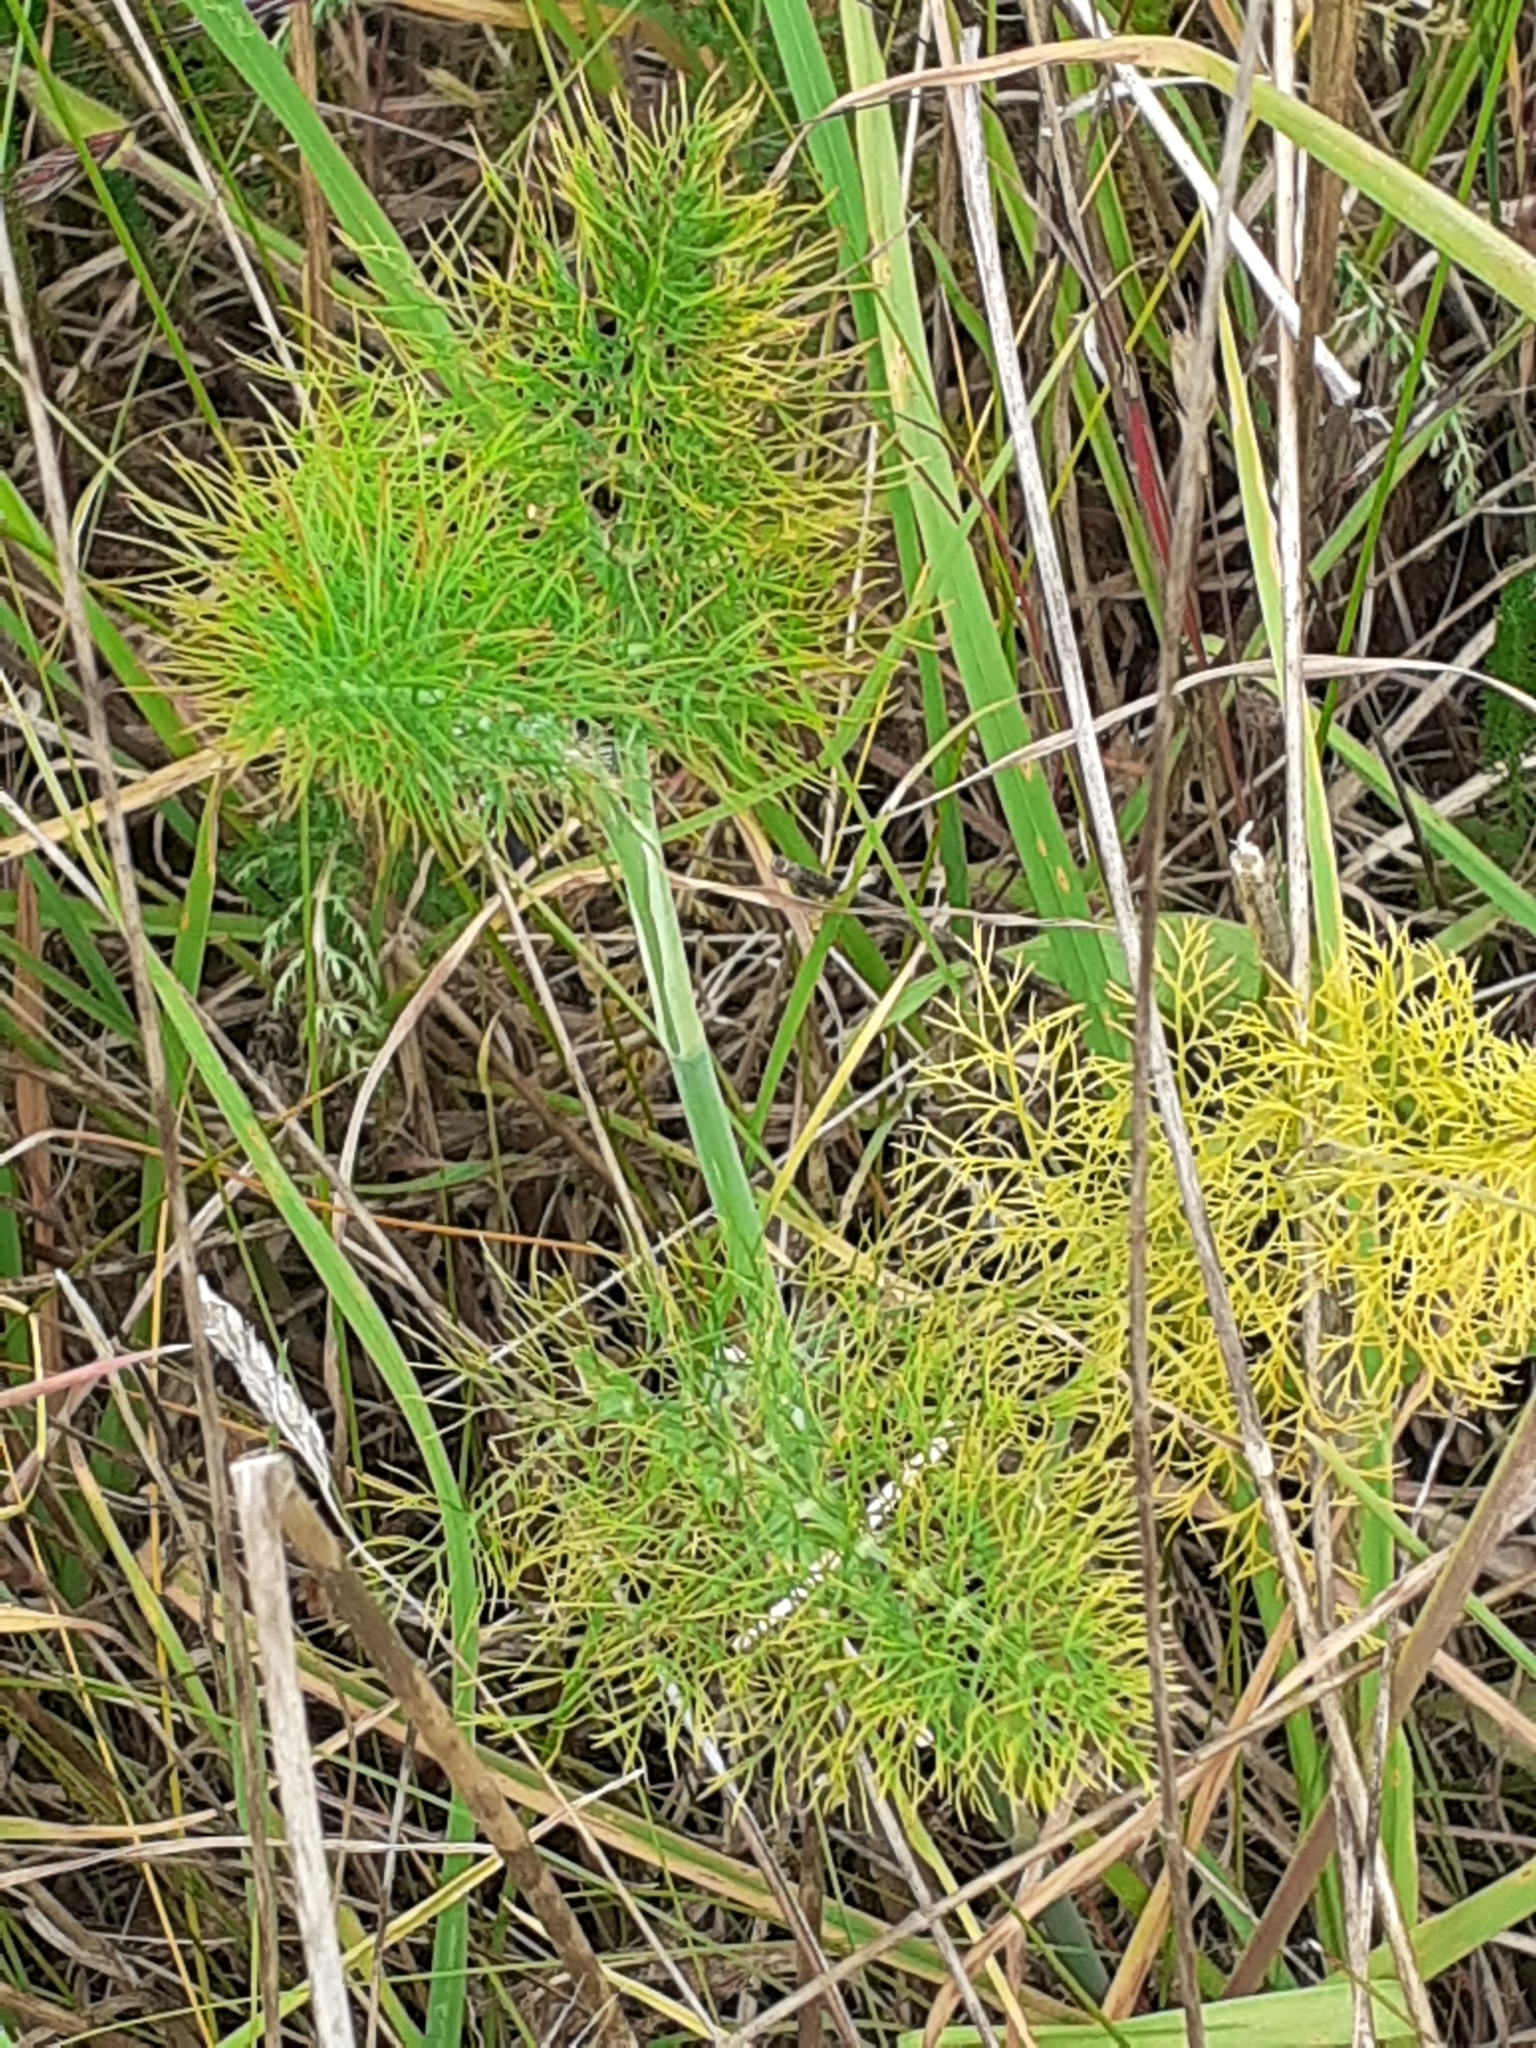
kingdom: Plantae
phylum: Tracheophyta
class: Magnoliopsida
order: Apiales
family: Apiaceae
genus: Foeniculum
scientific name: Foeniculum vulgare
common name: Fennel
